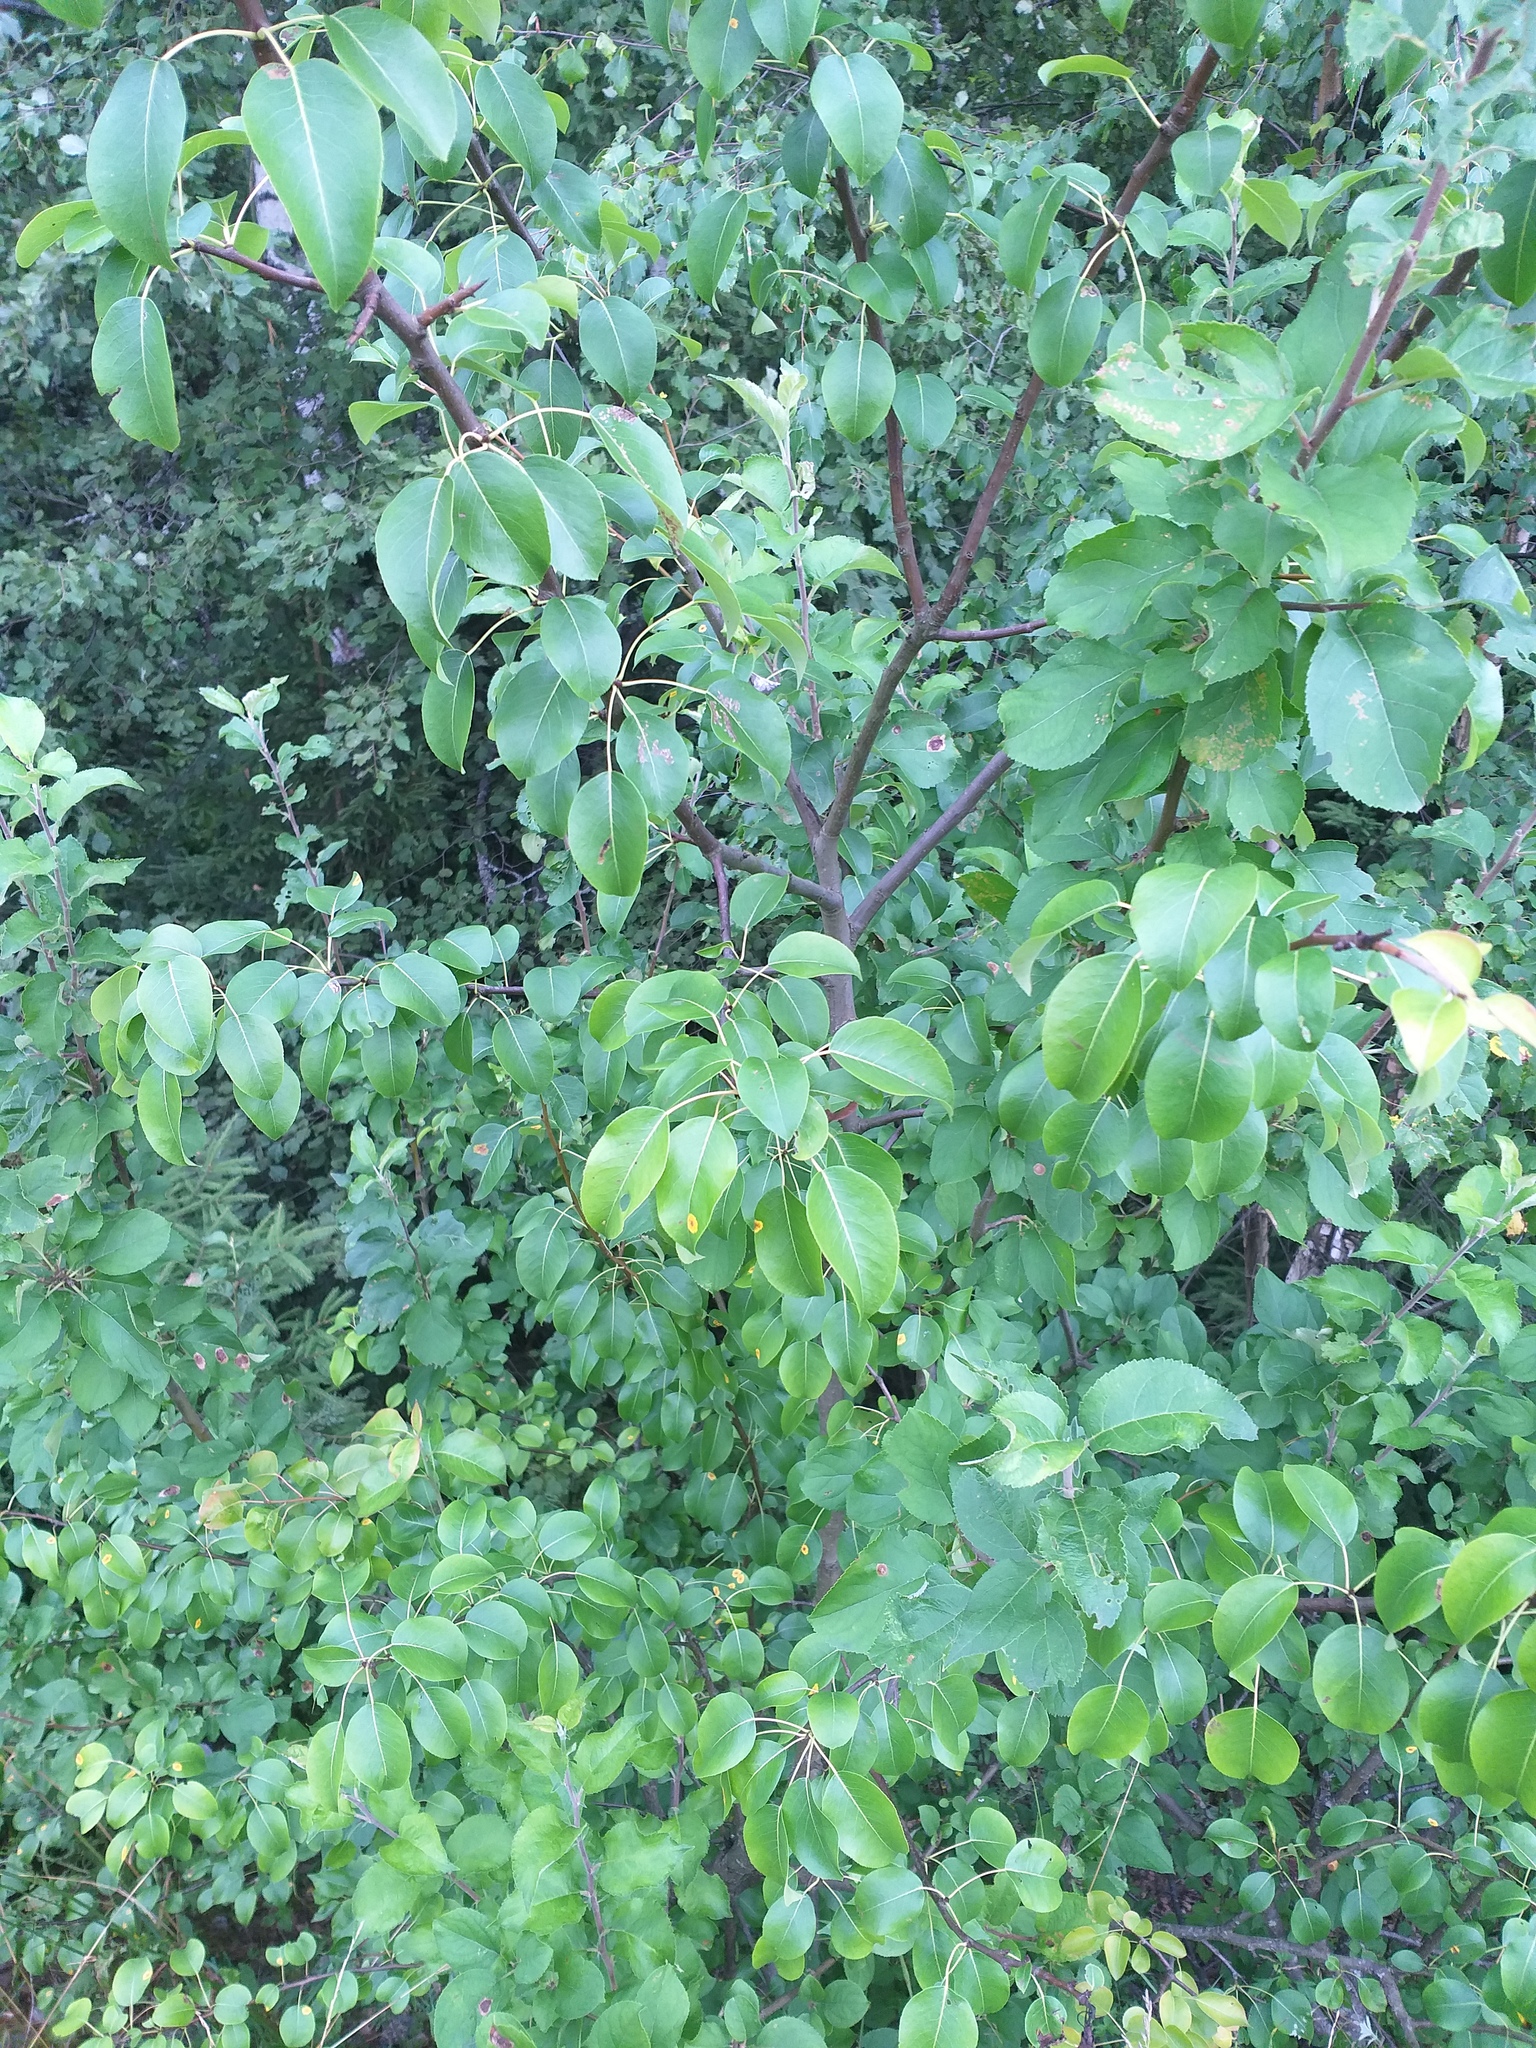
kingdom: Plantae
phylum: Tracheophyta
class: Magnoliopsida
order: Rosales
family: Rosaceae
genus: Pyrus
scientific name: Pyrus communis
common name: Pear
